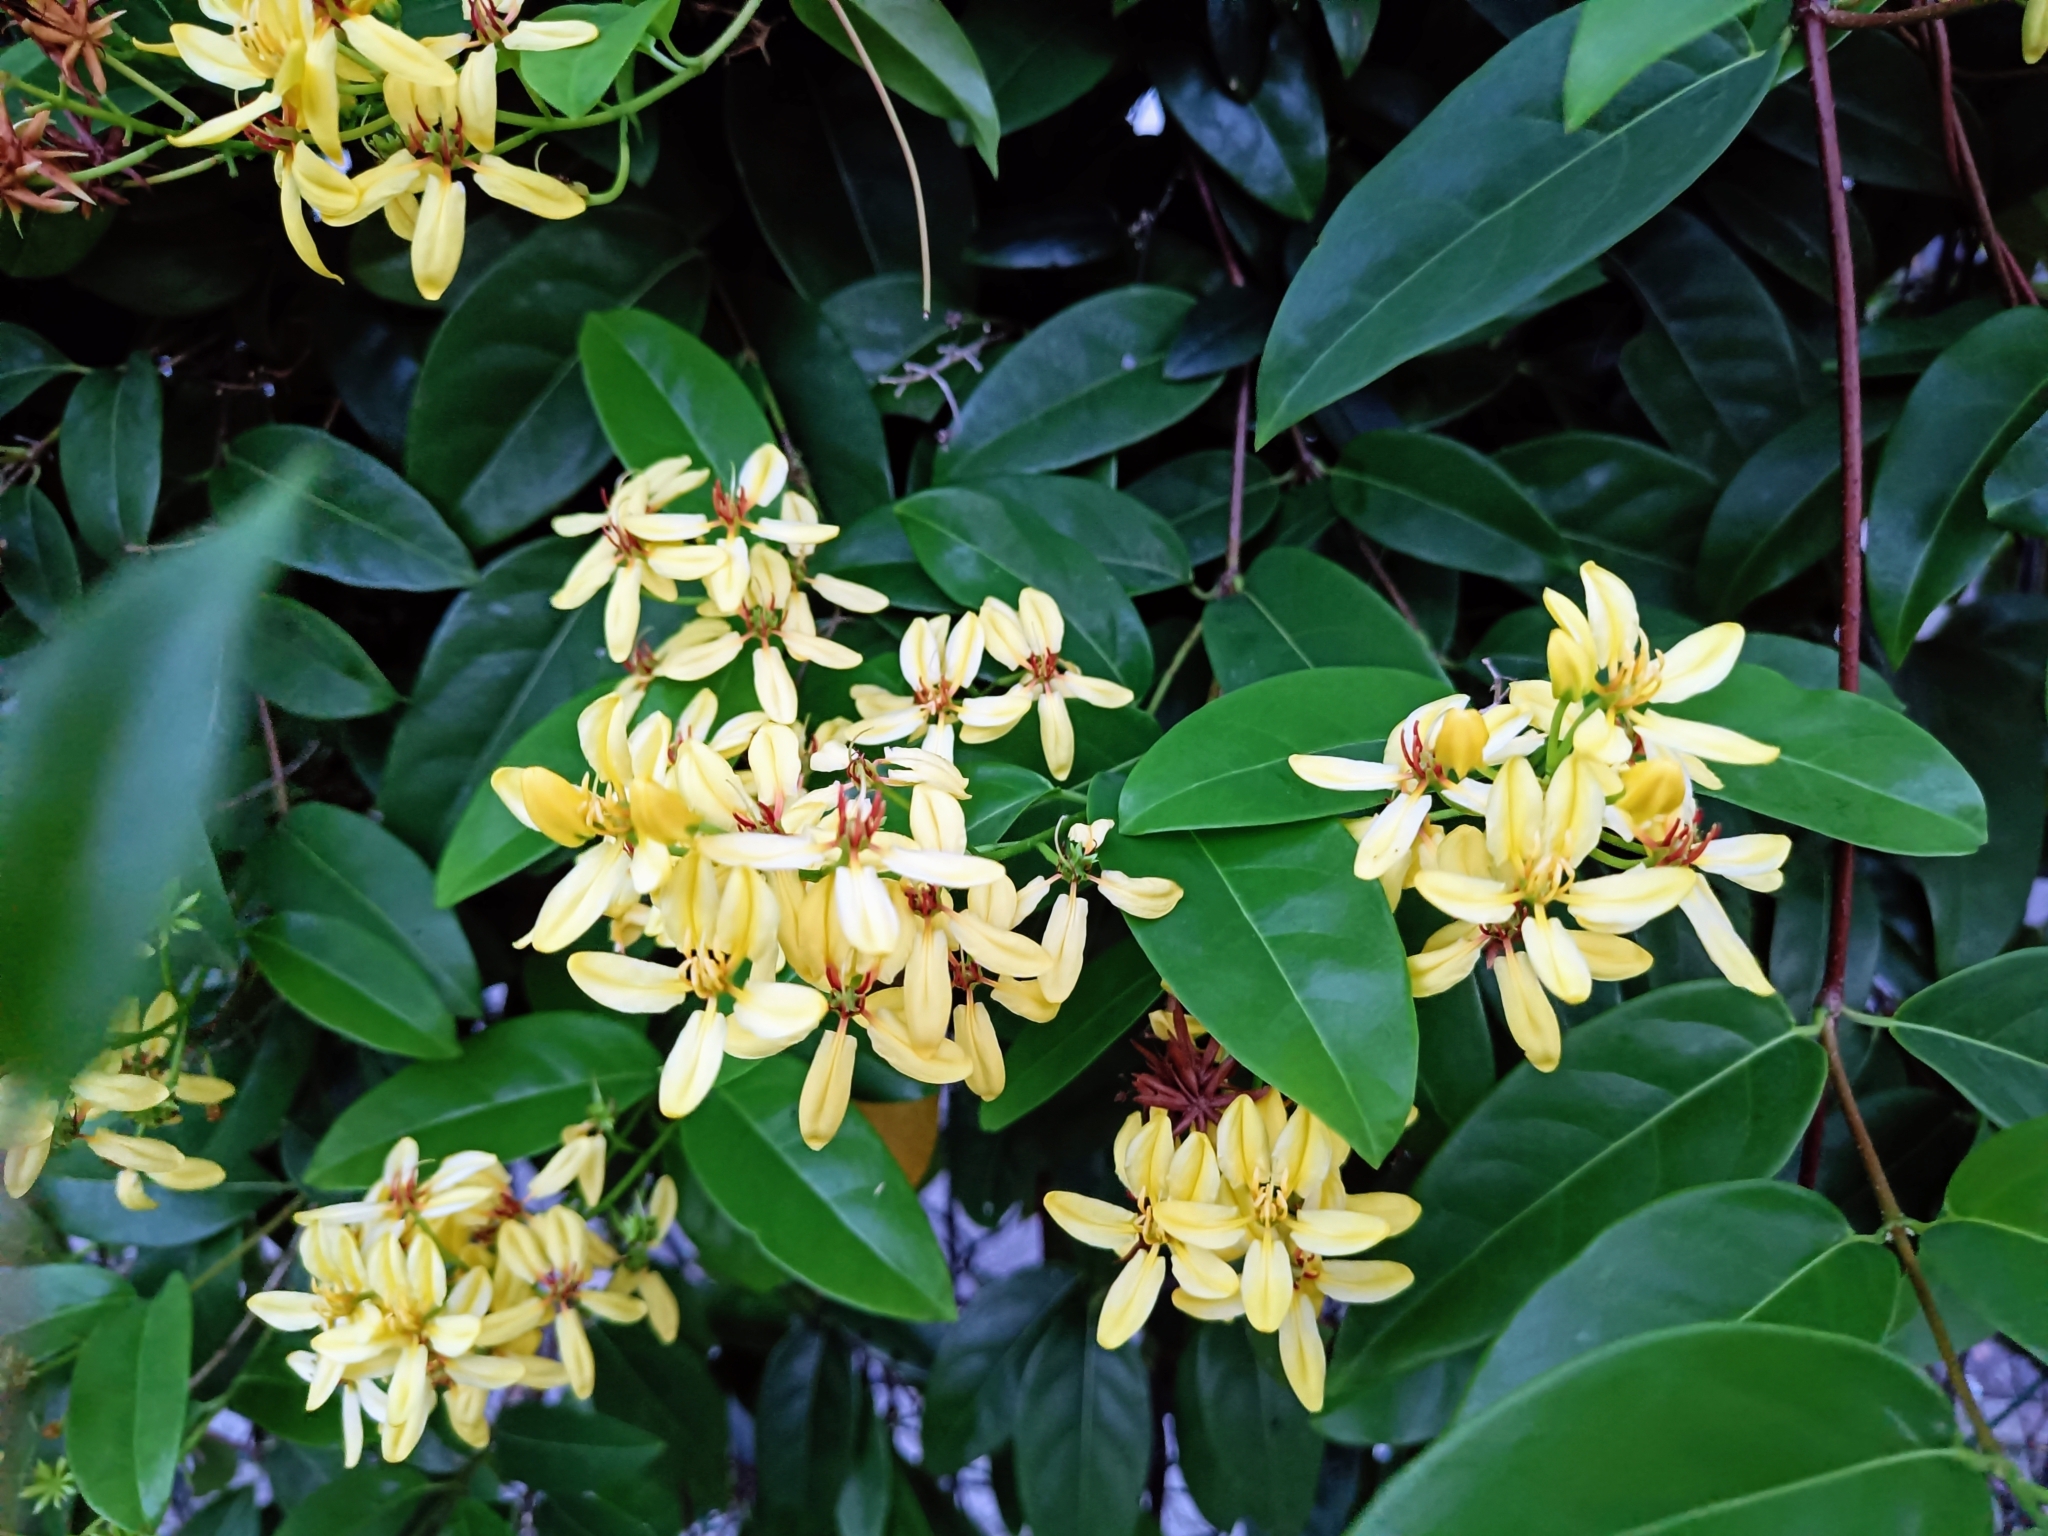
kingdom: Plantae
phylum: Tracheophyta
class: Magnoliopsida
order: Malpighiales
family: Malpighiaceae
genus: Tristellateia
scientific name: Tristellateia australasiae
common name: Australian goldvine
